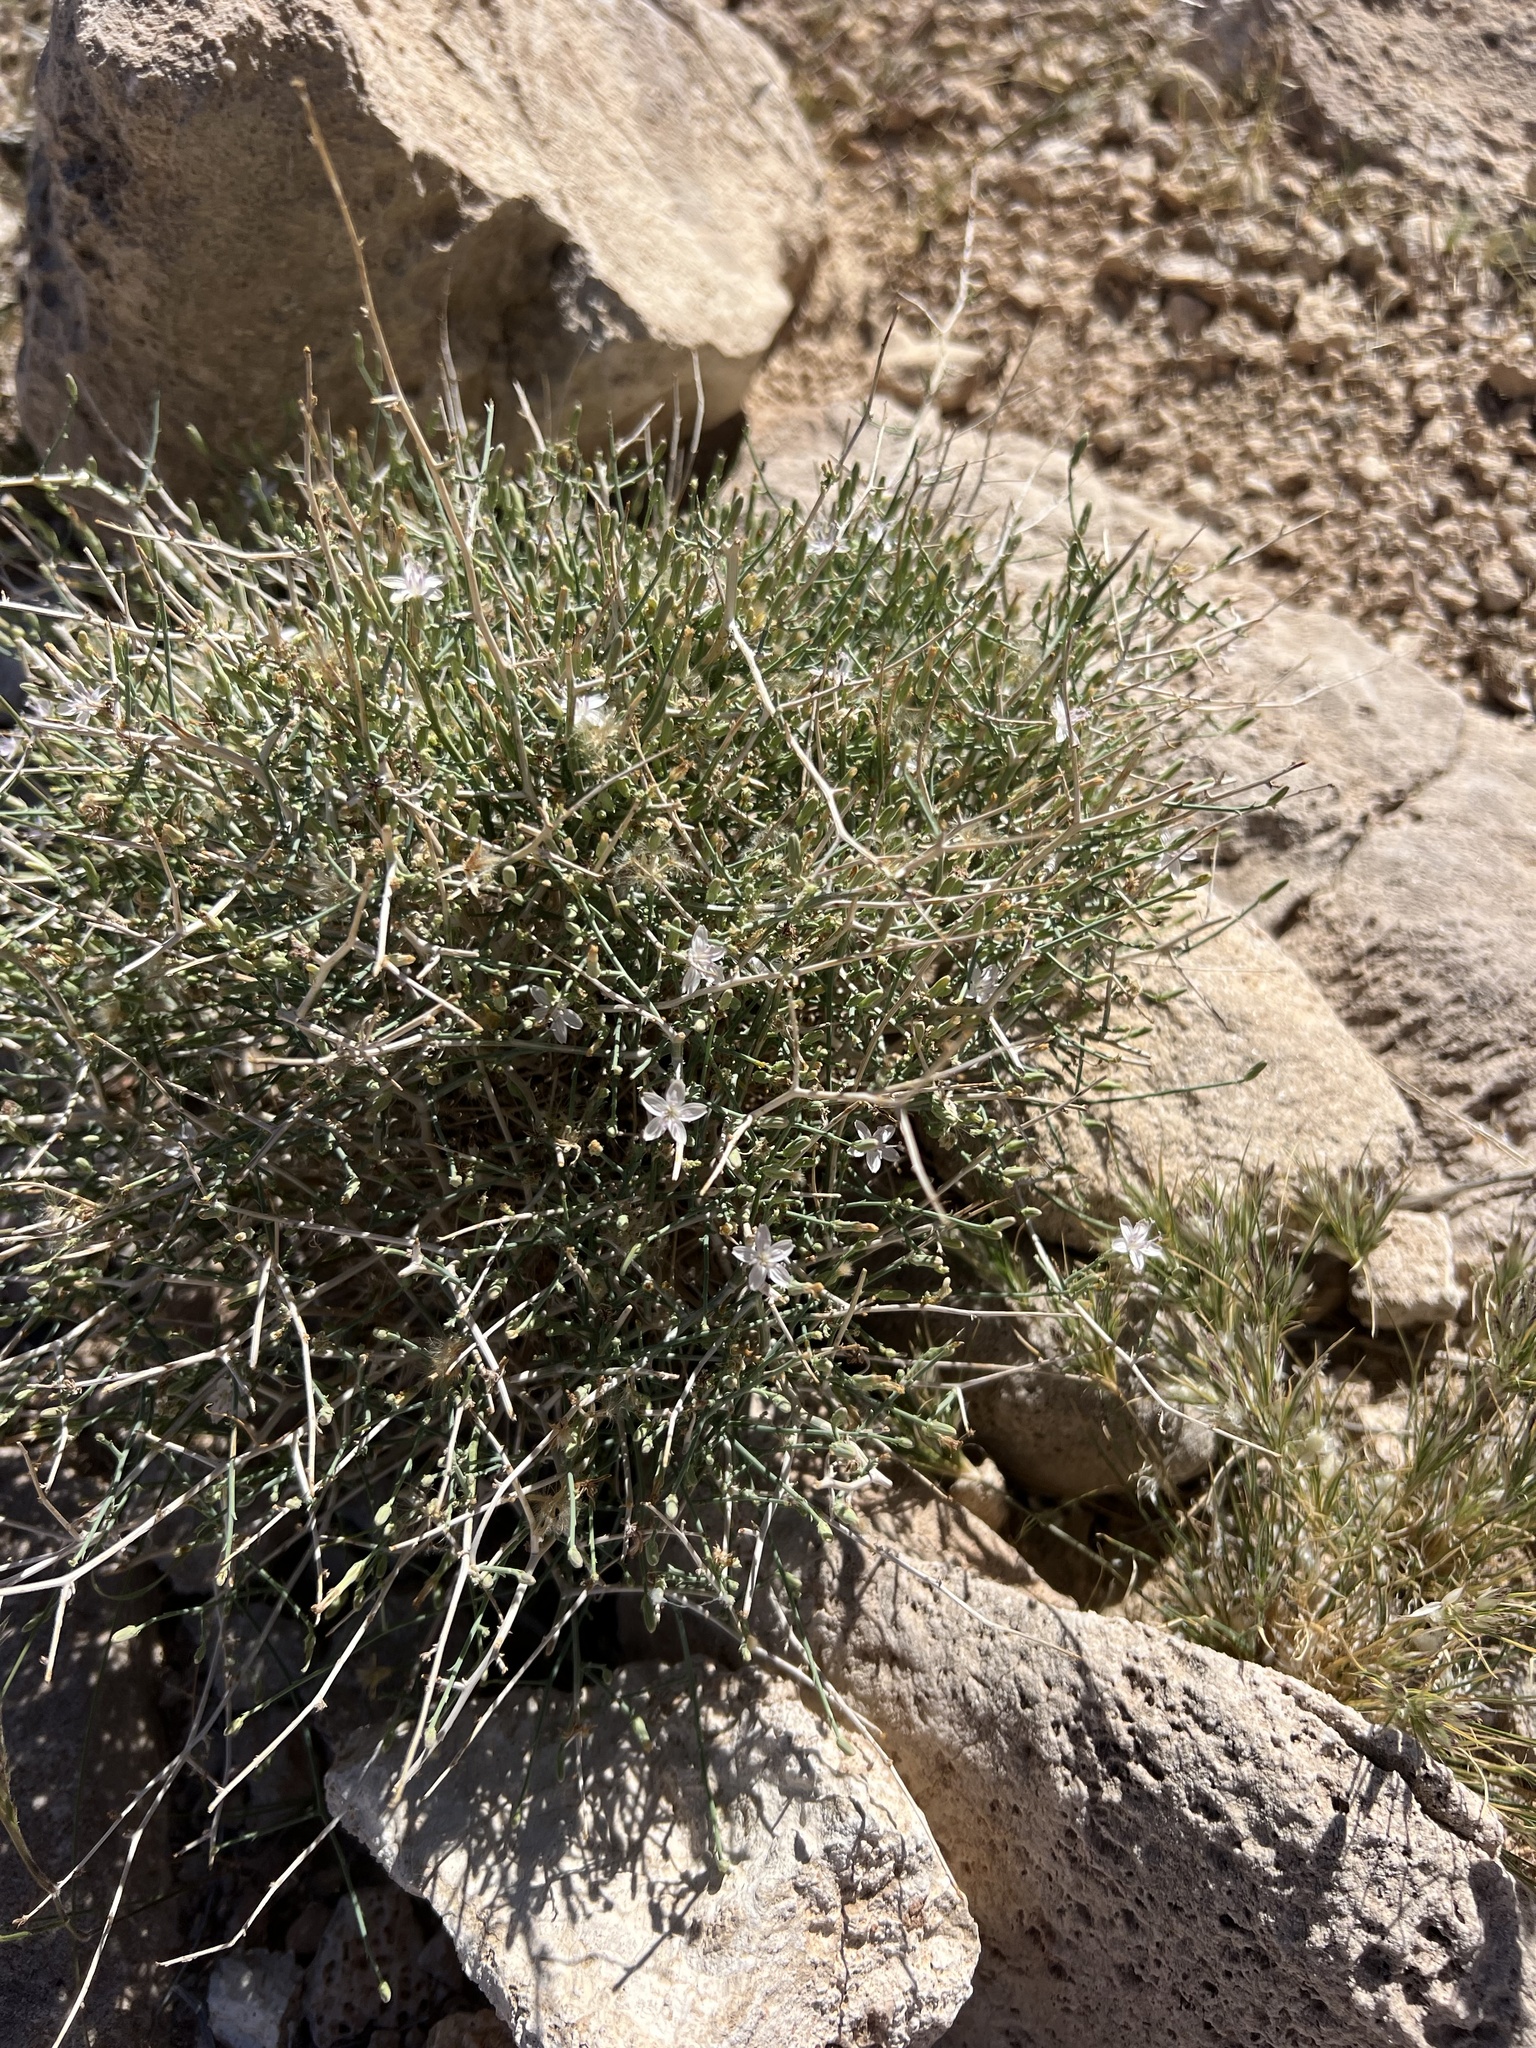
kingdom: Plantae
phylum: Tracheophyta
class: Magnoliopsida
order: Asterales
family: Asteraceae
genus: Stephanomeria
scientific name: Stephanomeria pauciflora
